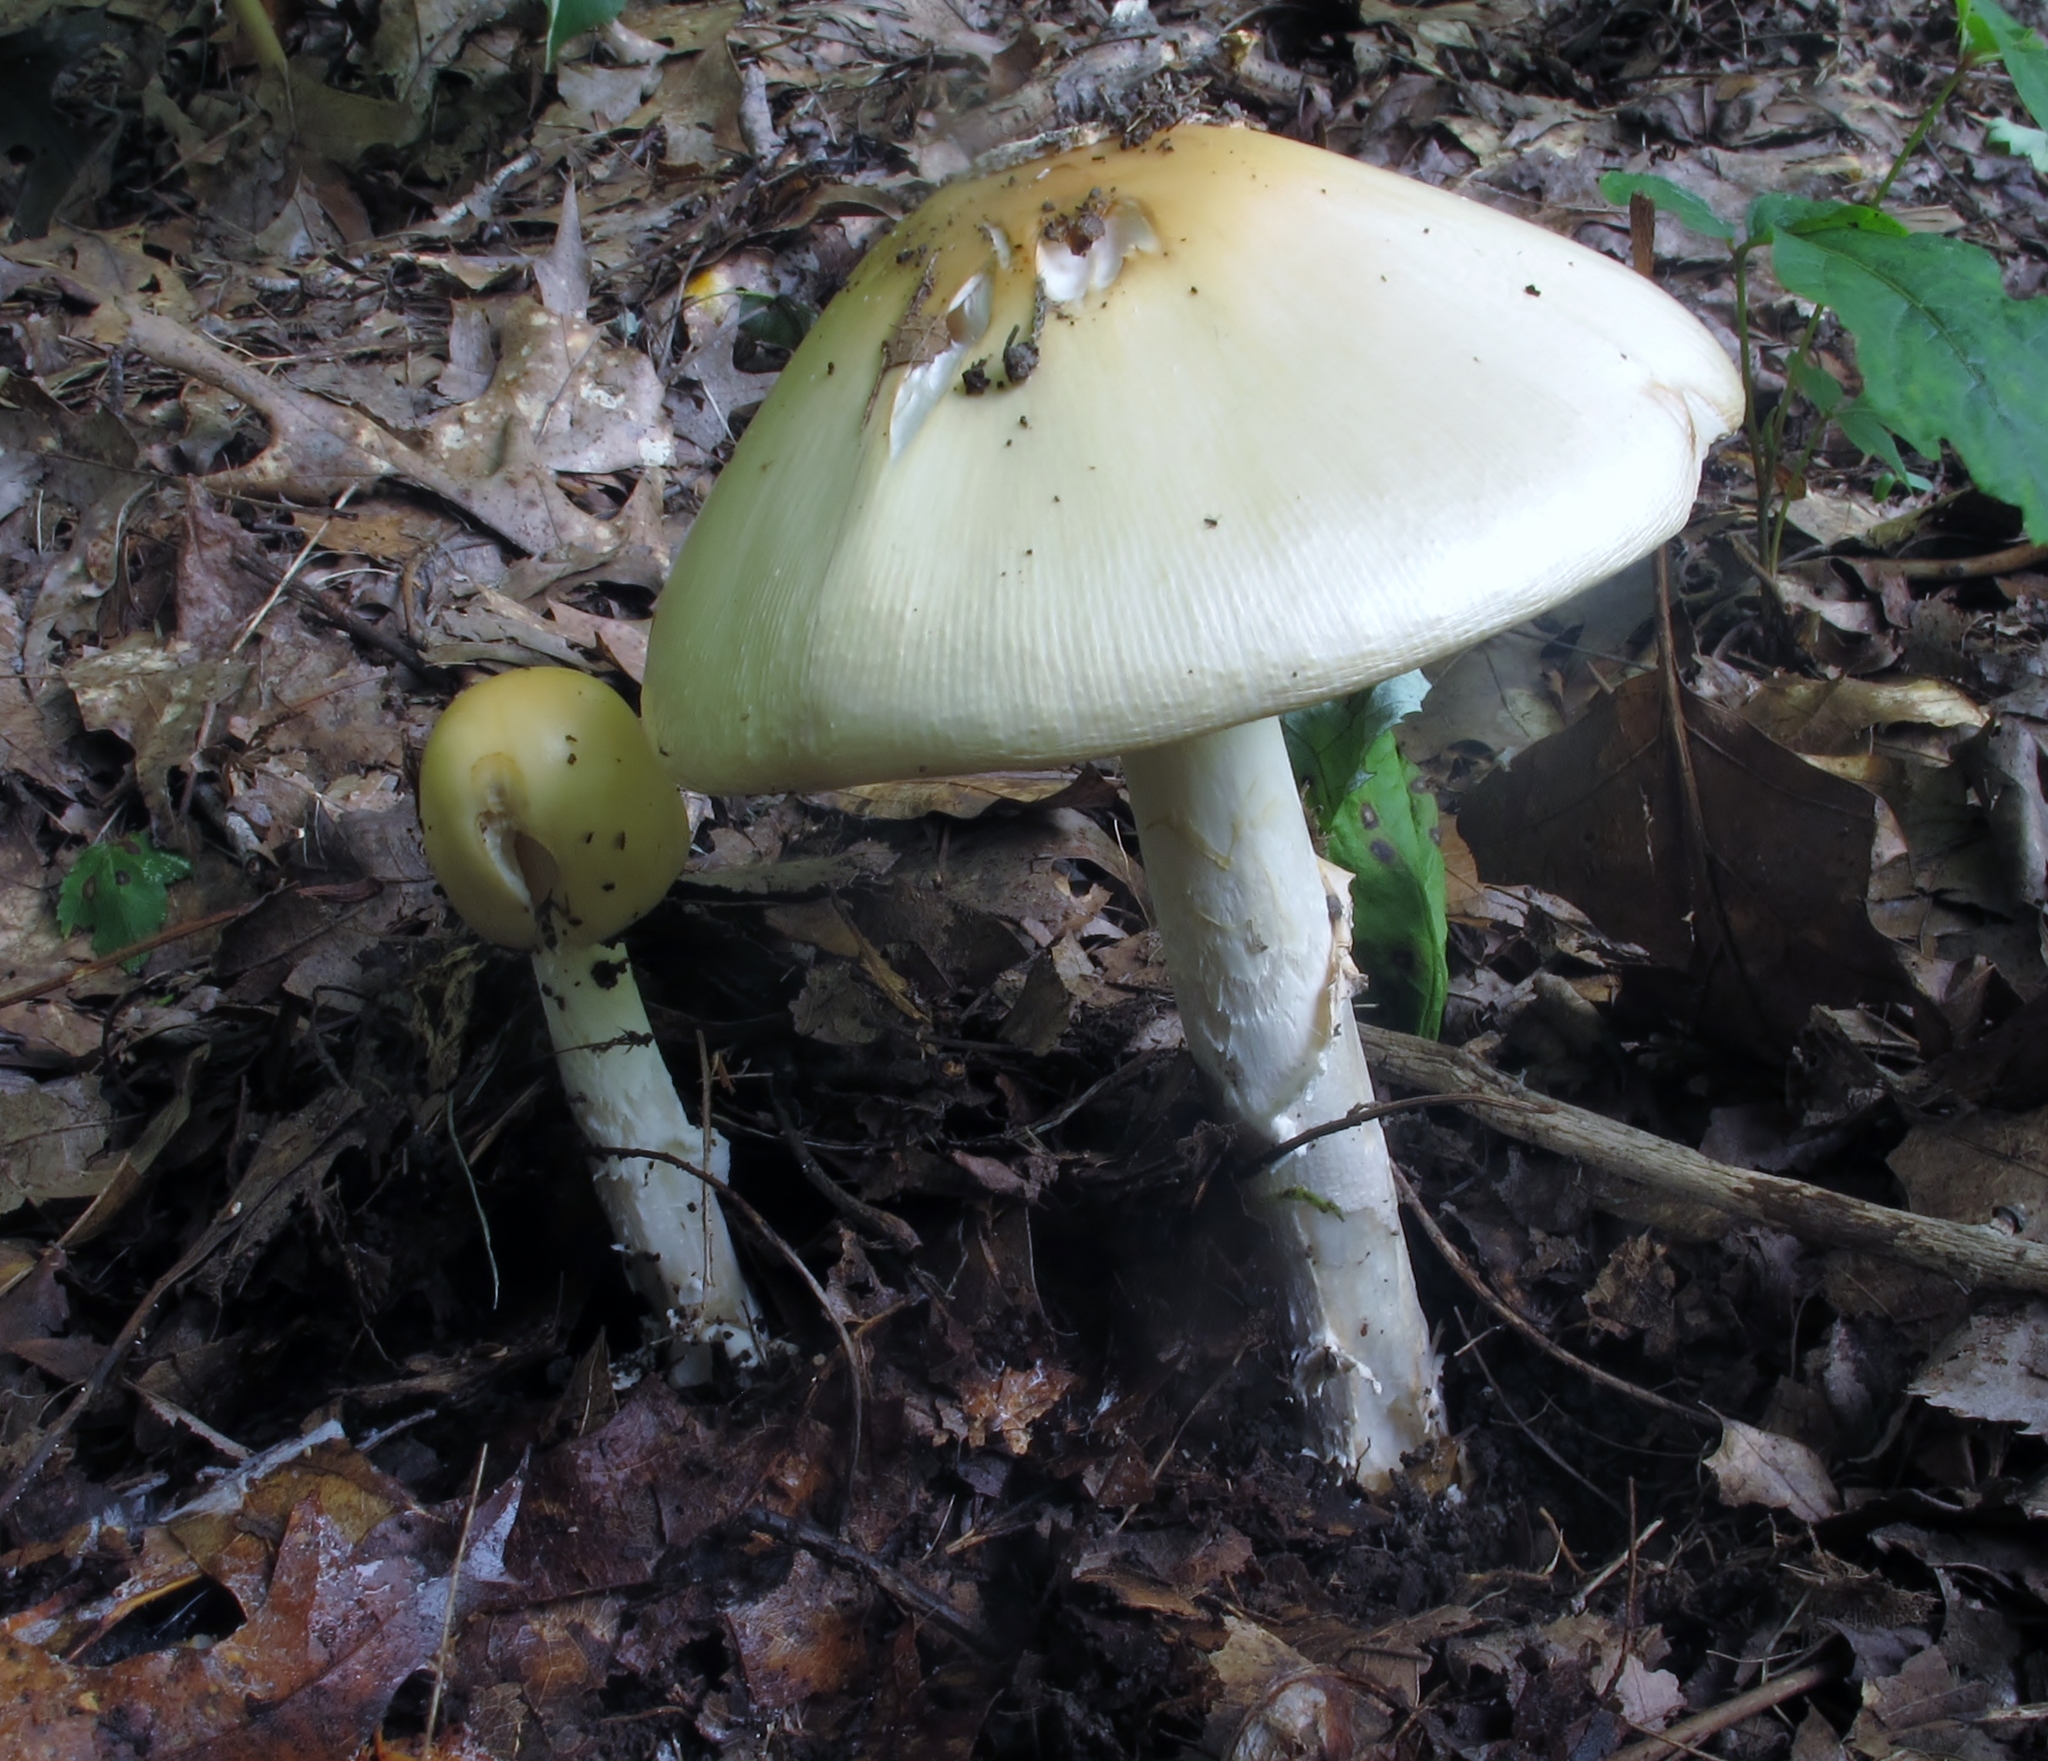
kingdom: Fungi
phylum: Basidiomycota
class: Agaricomycetes
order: Agaricales
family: Amanitaceae
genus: Amanita
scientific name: Amanita velatipes
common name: Great funnel-veil amanita
